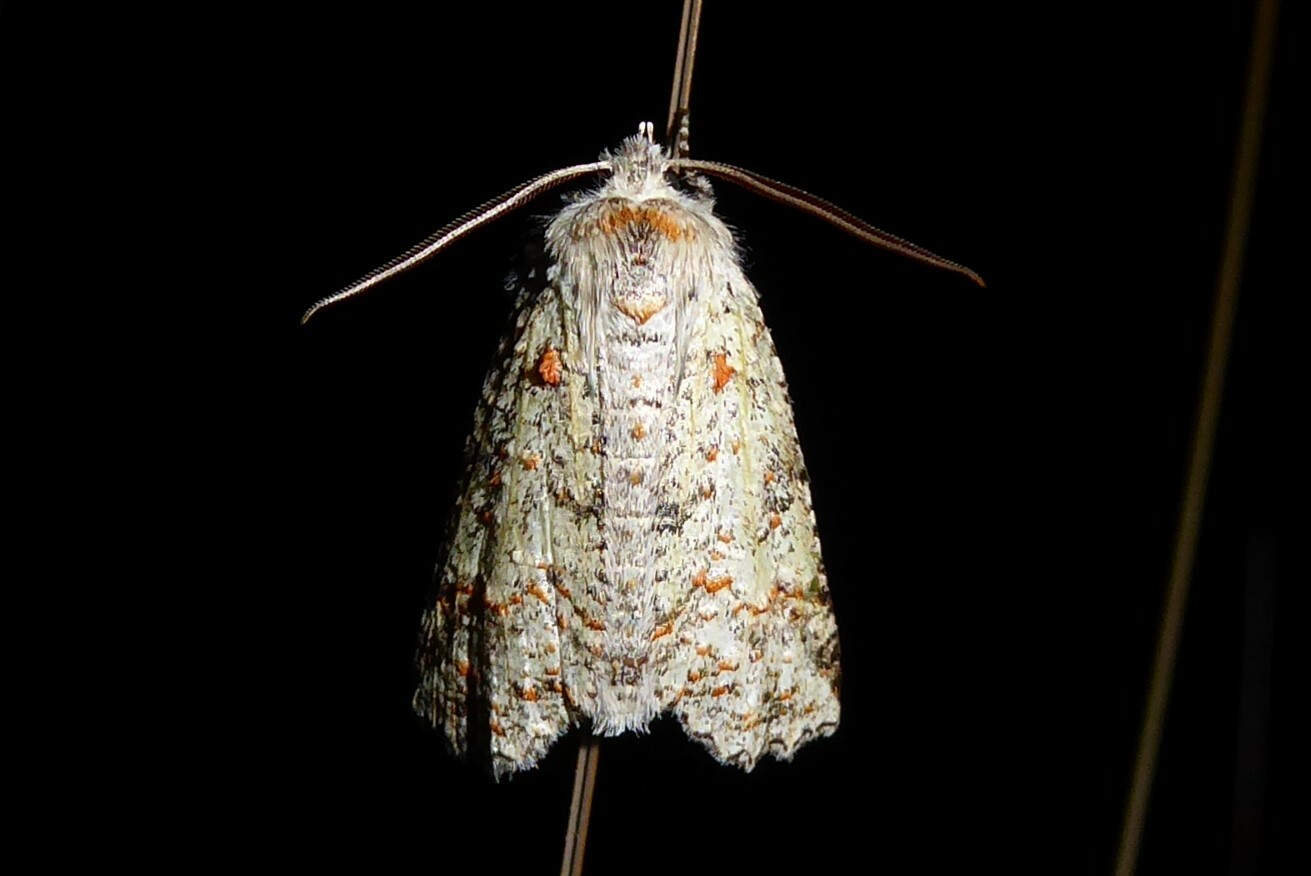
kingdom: Animalia
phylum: Arthropoda
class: Insecta
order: Lepidoptera
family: Geometridae
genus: Declana
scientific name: Declana floccosa
